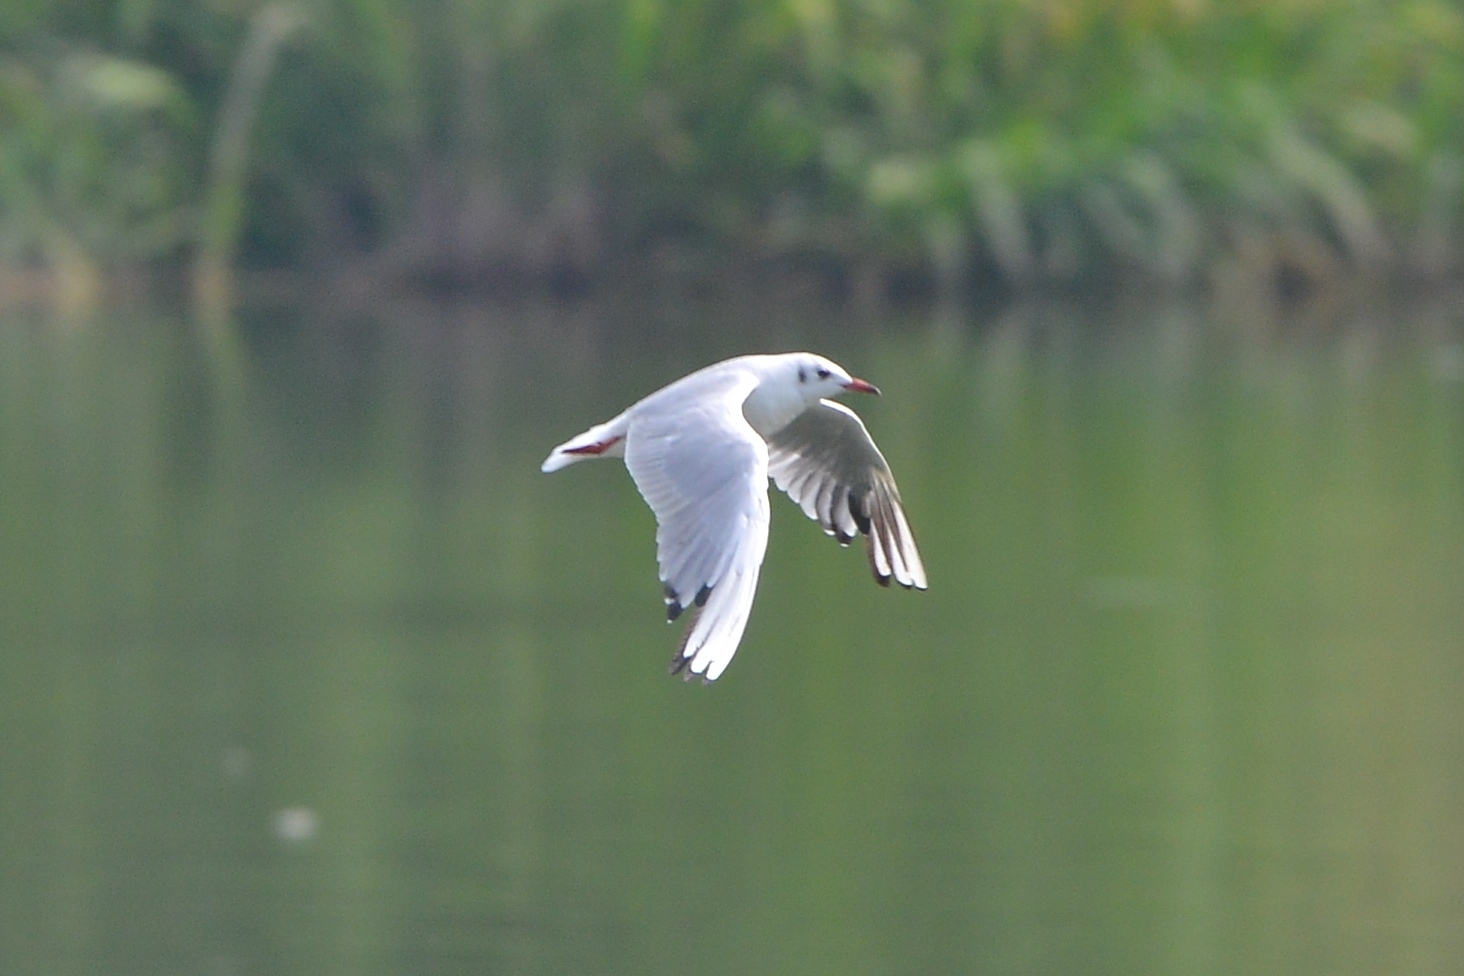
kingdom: Animalia
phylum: Chordata
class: Aves
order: Charadriiformes
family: Laridae
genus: Chroicocephalus
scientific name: Chroicocephalus ridibundus
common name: Black-headed gull
